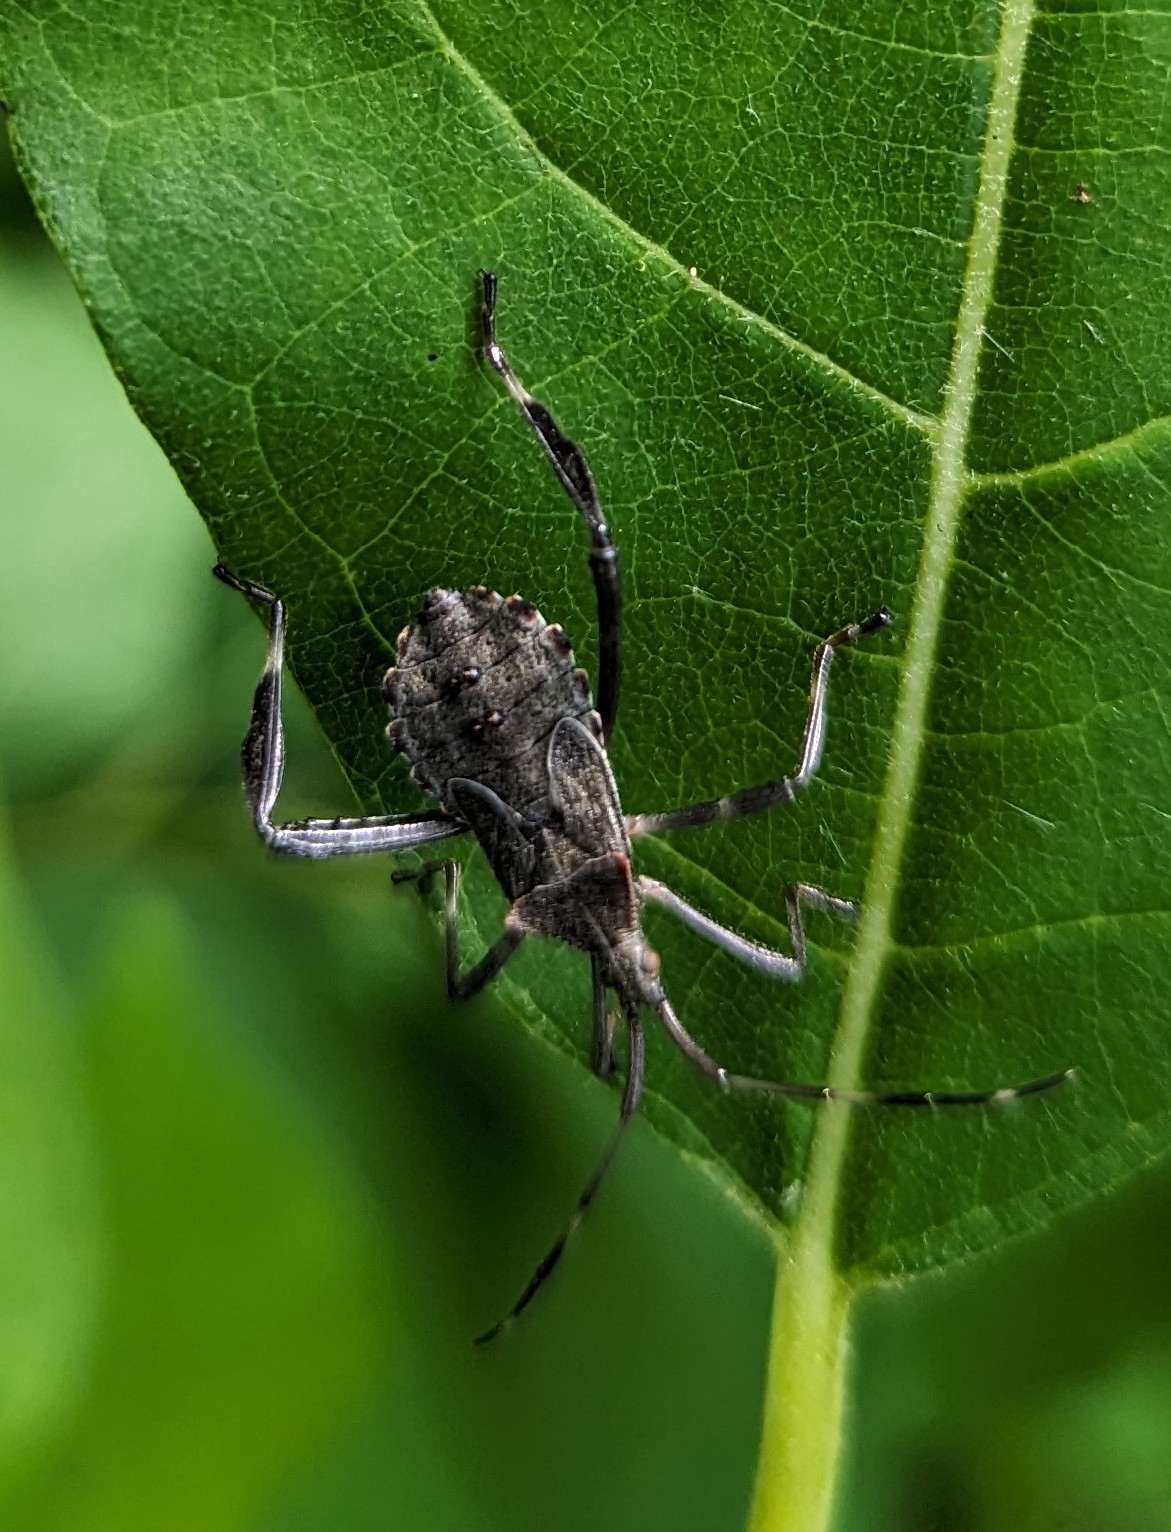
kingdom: Animalia
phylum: Arthropoda
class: Insecta
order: Hemiptera
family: Coreidae
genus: Acanthocephala
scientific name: Acanthocephala terminalis
